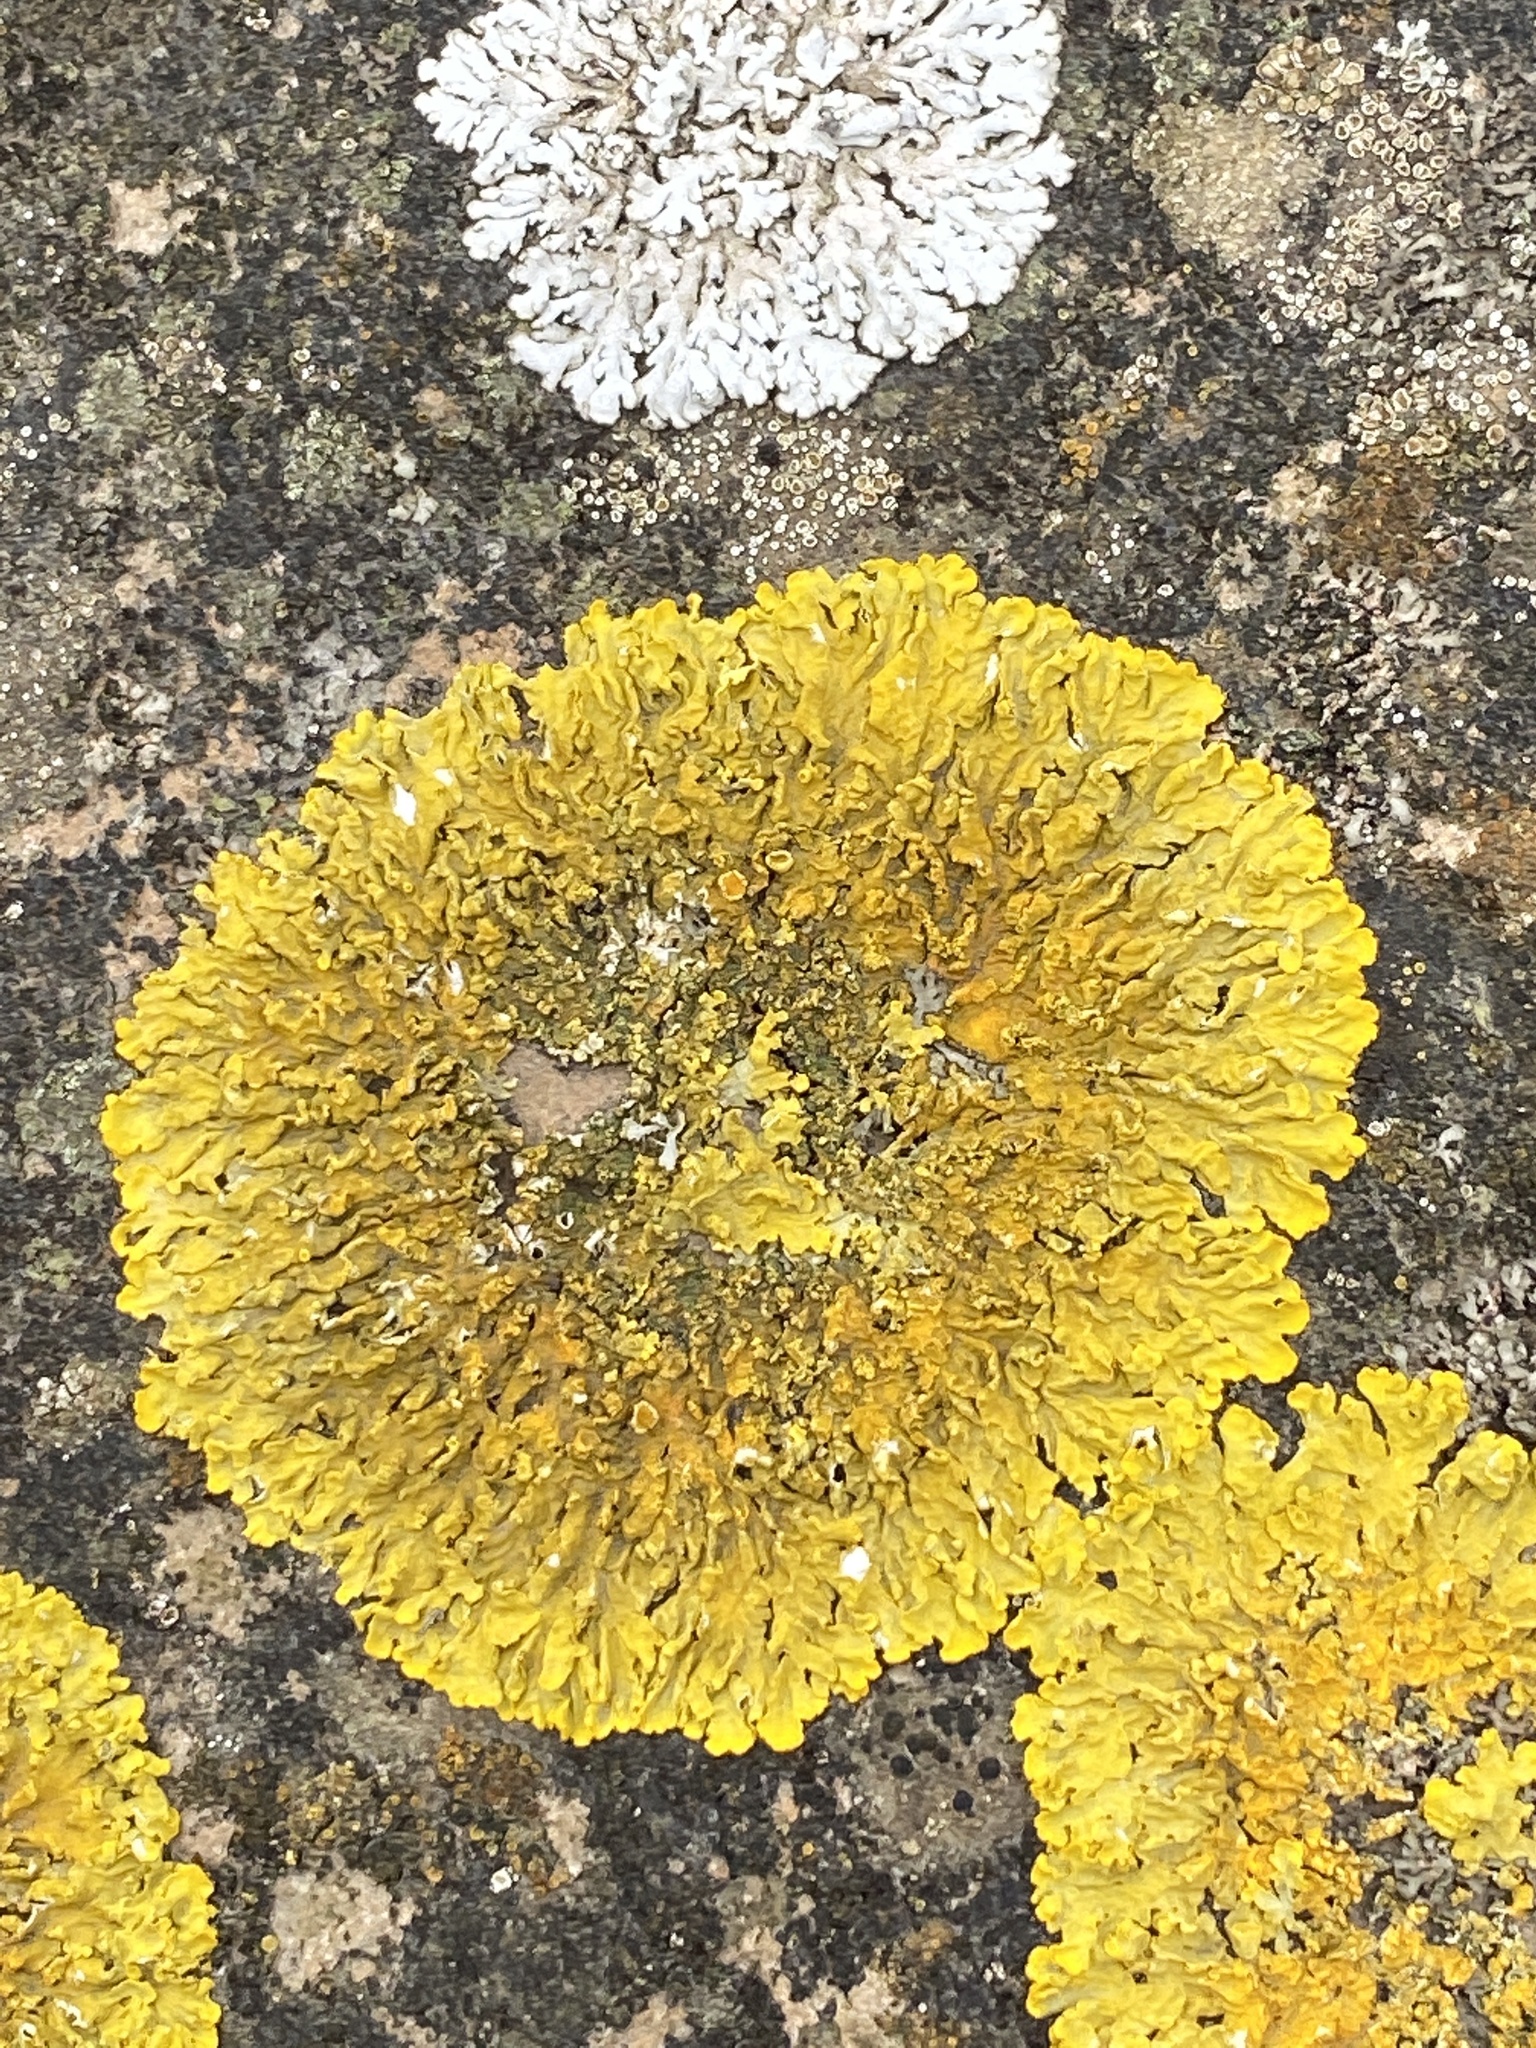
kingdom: Fungi
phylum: Ascomycota
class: Lecanoromycetes
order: Teloschistales
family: Teloschistaceae
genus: Xanthoria
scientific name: Xanthoria parietina
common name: Common orange lichen
